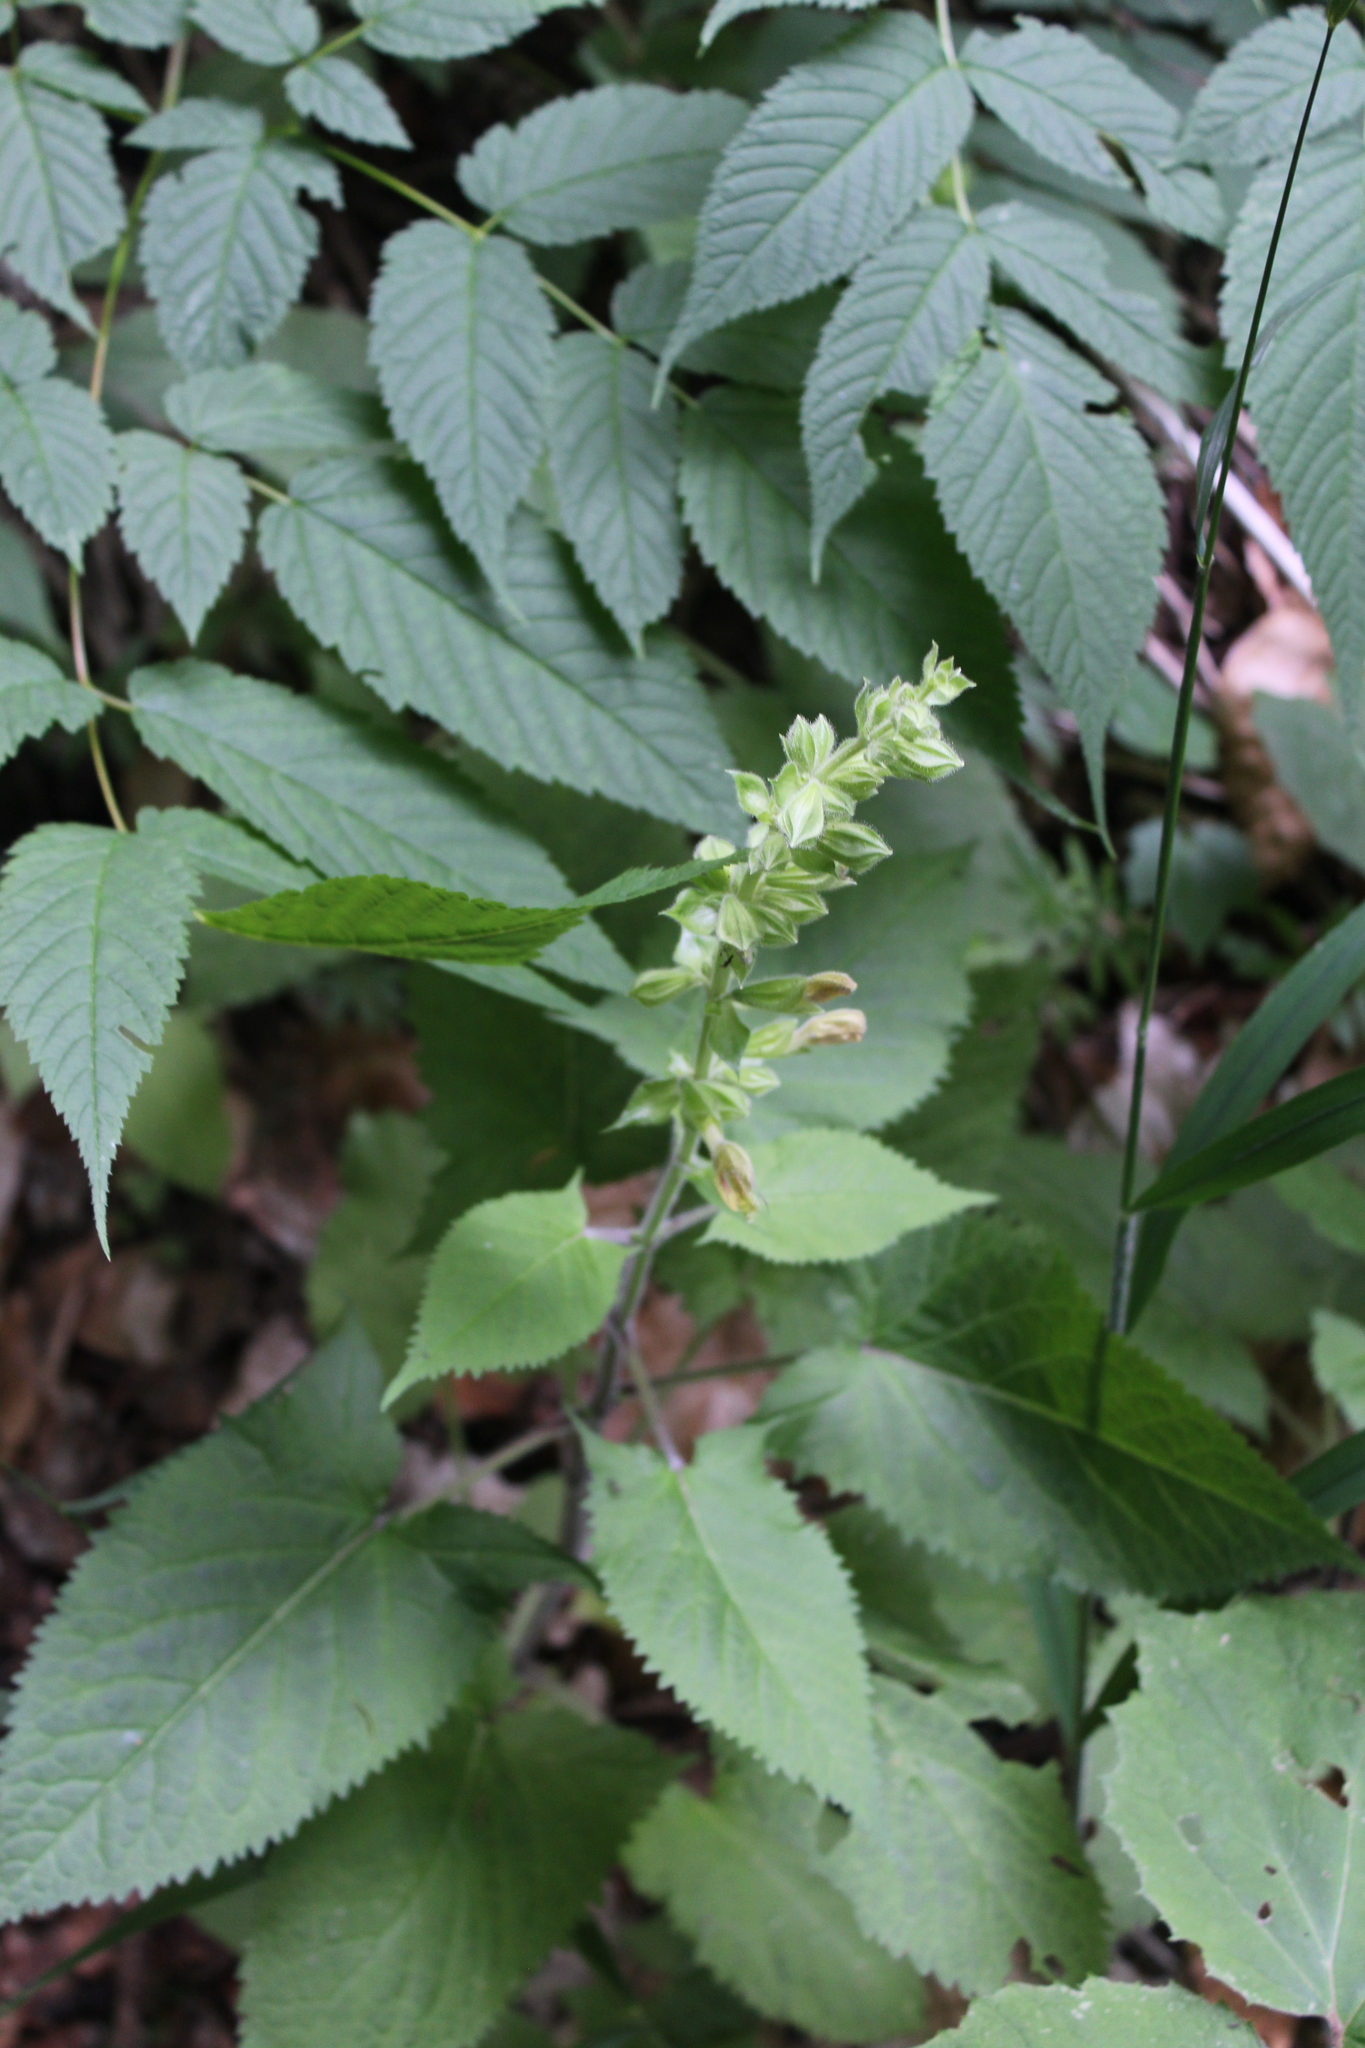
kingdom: Plantae
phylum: Tracheophyta
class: Magnoliopsida
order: Lamiales
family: Lamiaceae
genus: Salvia
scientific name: Salvia glutinosa
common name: Sticky clary
